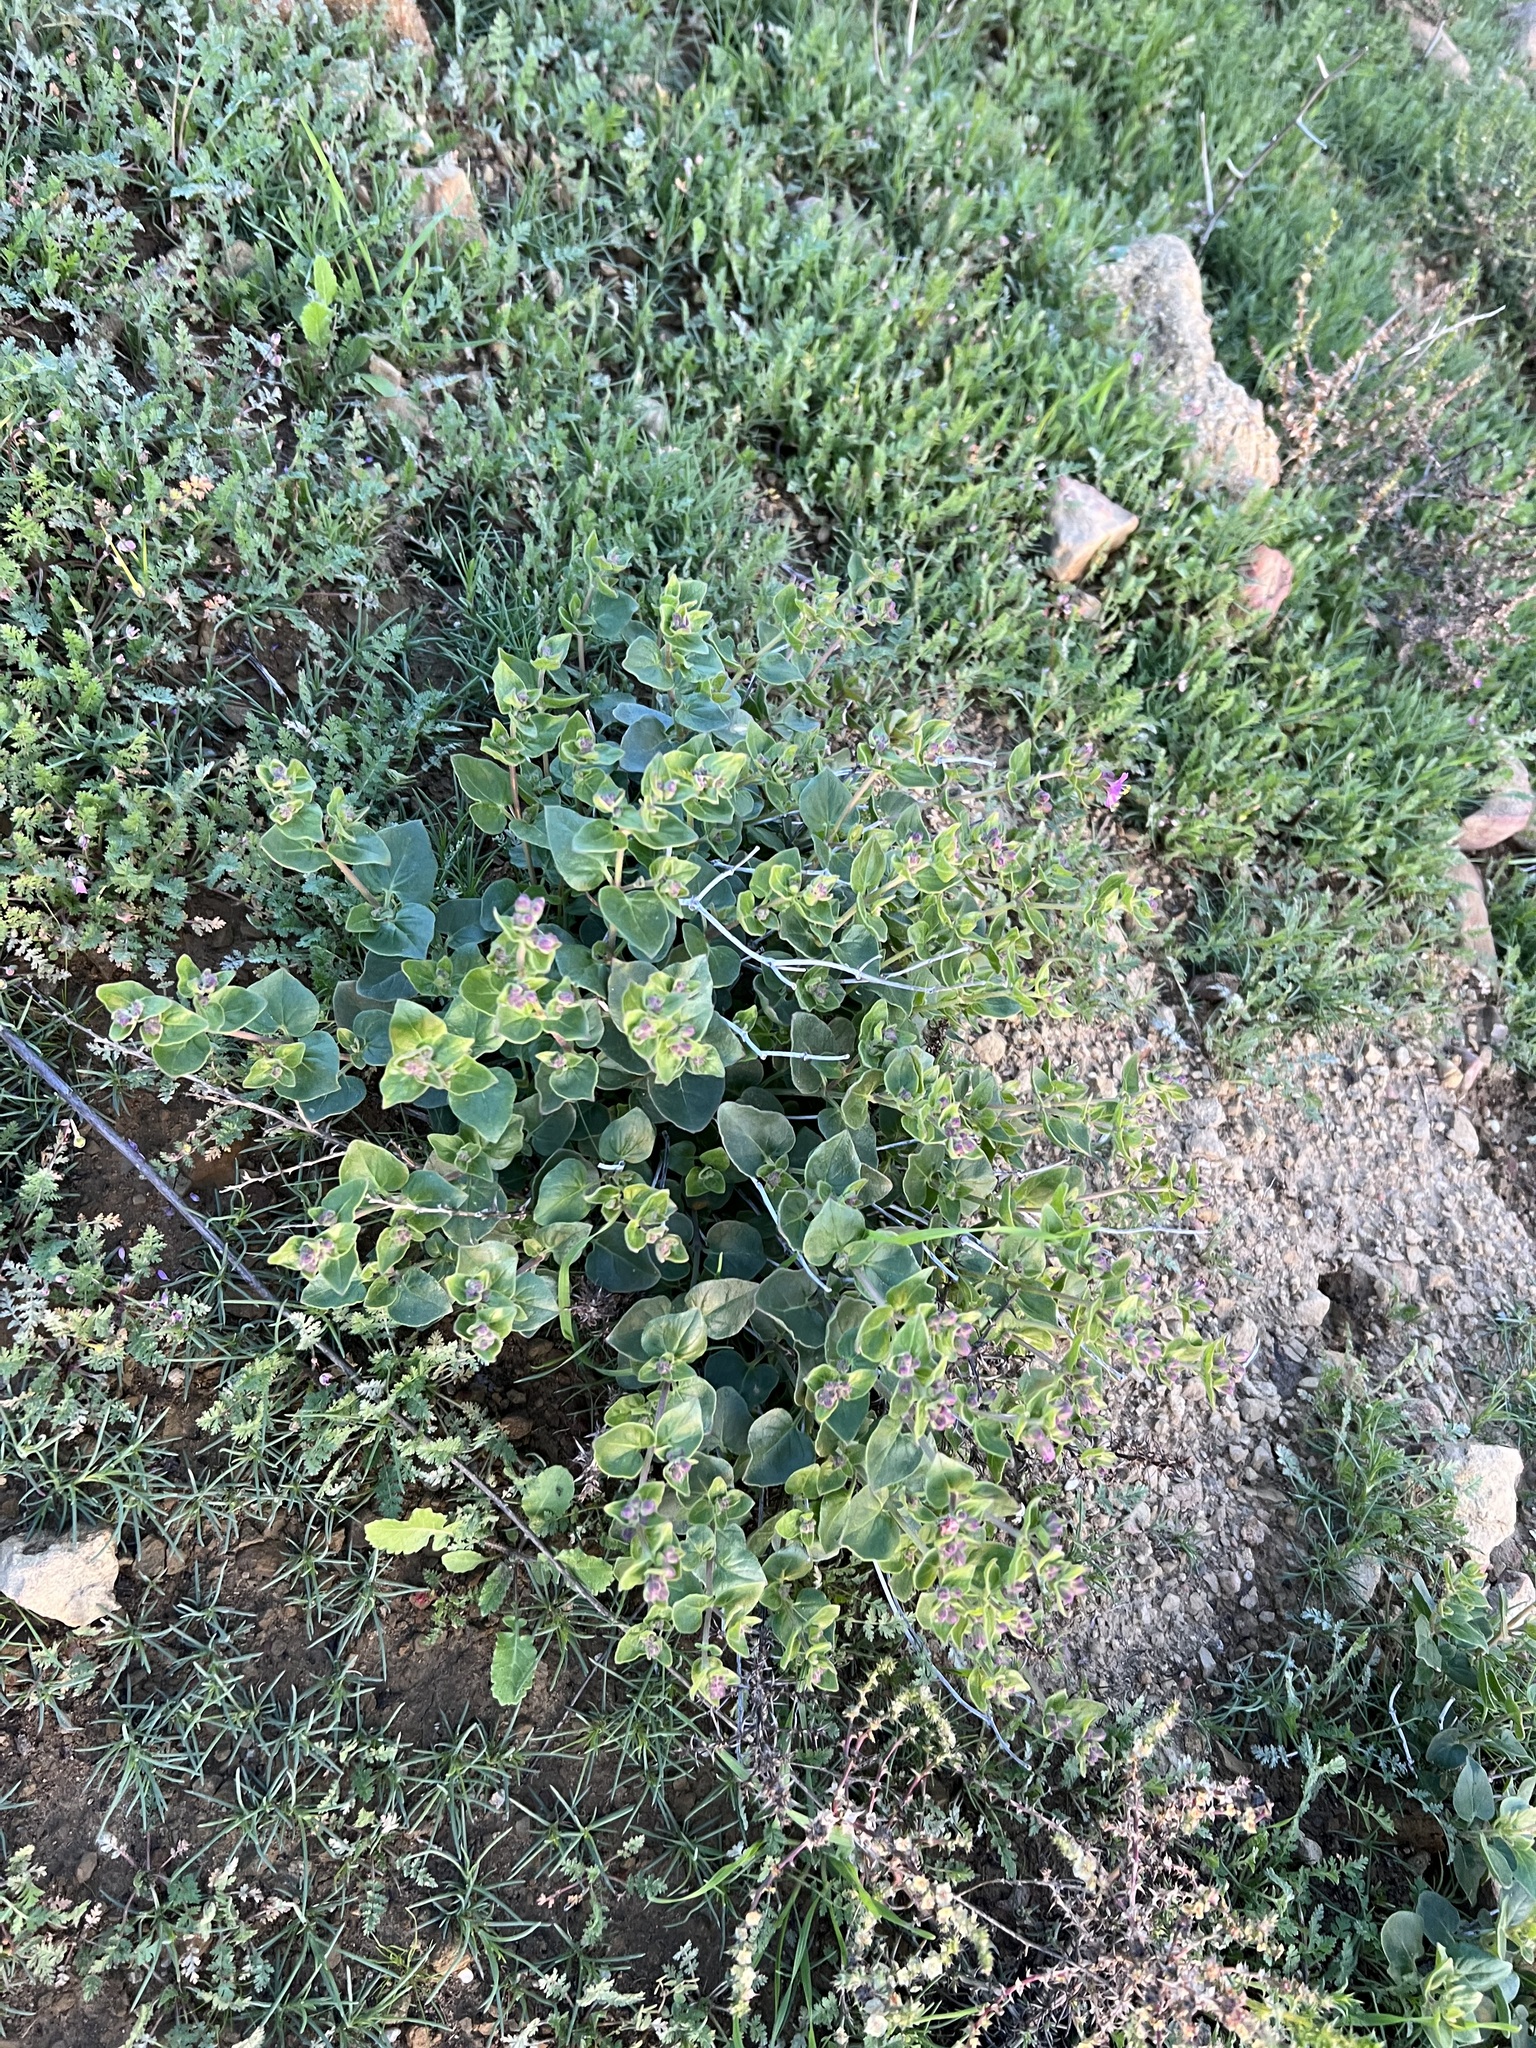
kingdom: Plantae
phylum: Tracheophyta
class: Magnoliopsida
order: Caryophyllales
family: Nyctaginaceae
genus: Mirabilis
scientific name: Mirabilis laevis
